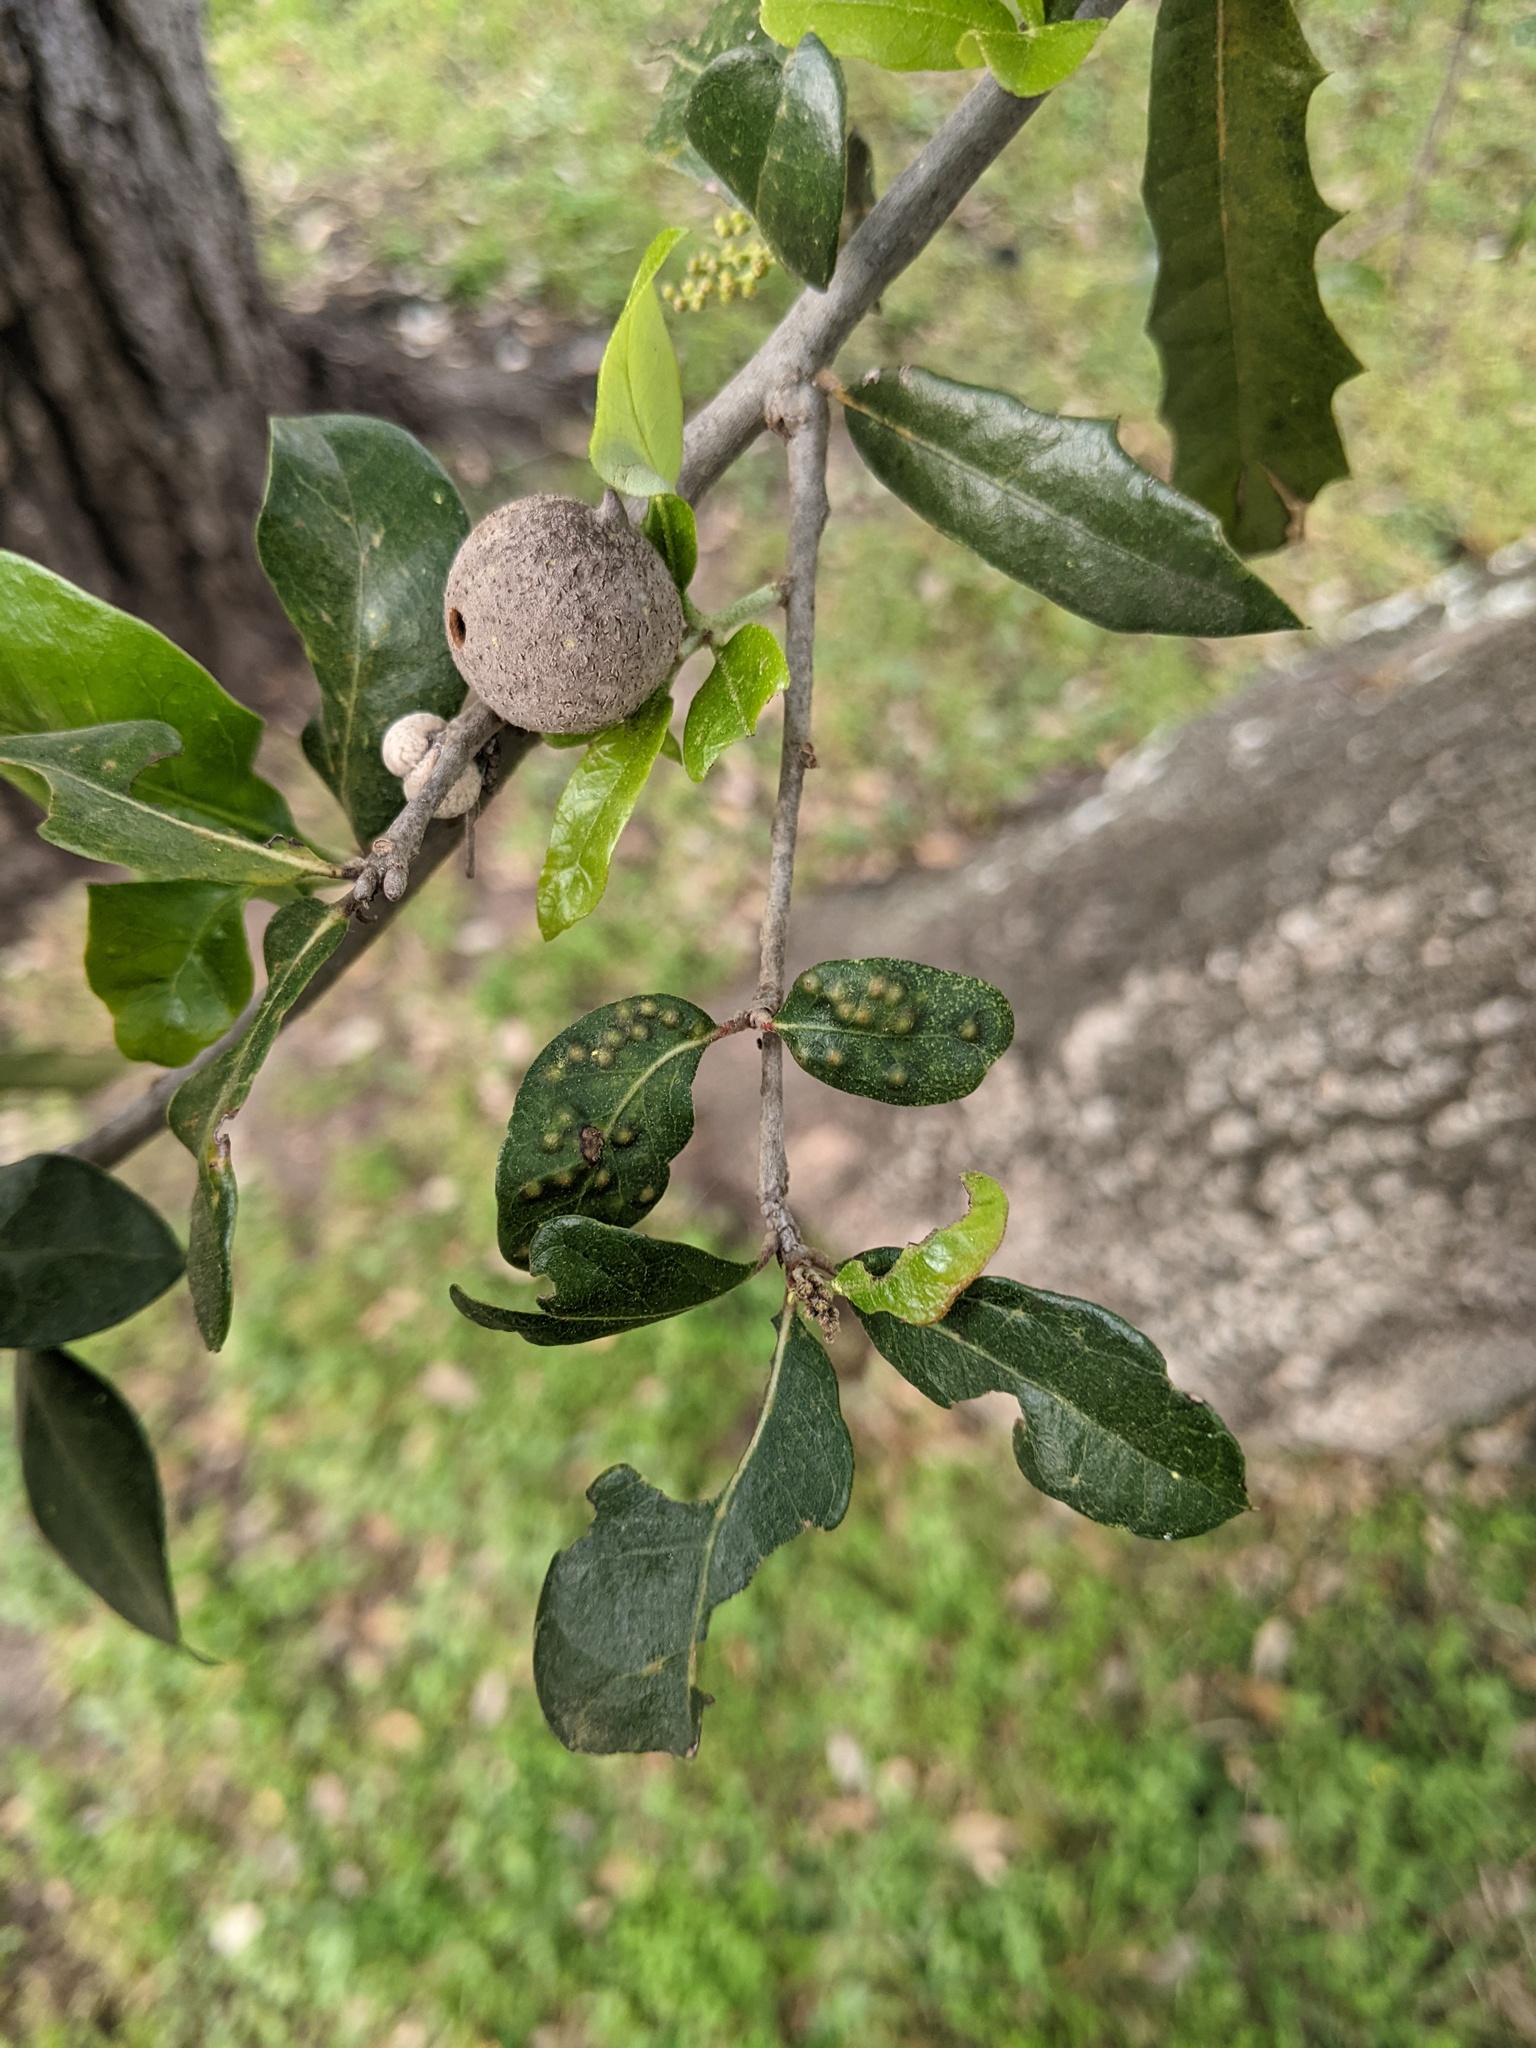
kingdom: Animalia
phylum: Arthropoda
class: Insecta
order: Hymenoptera
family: Cynipidae
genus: Neuroterus
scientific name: Neuroterus
